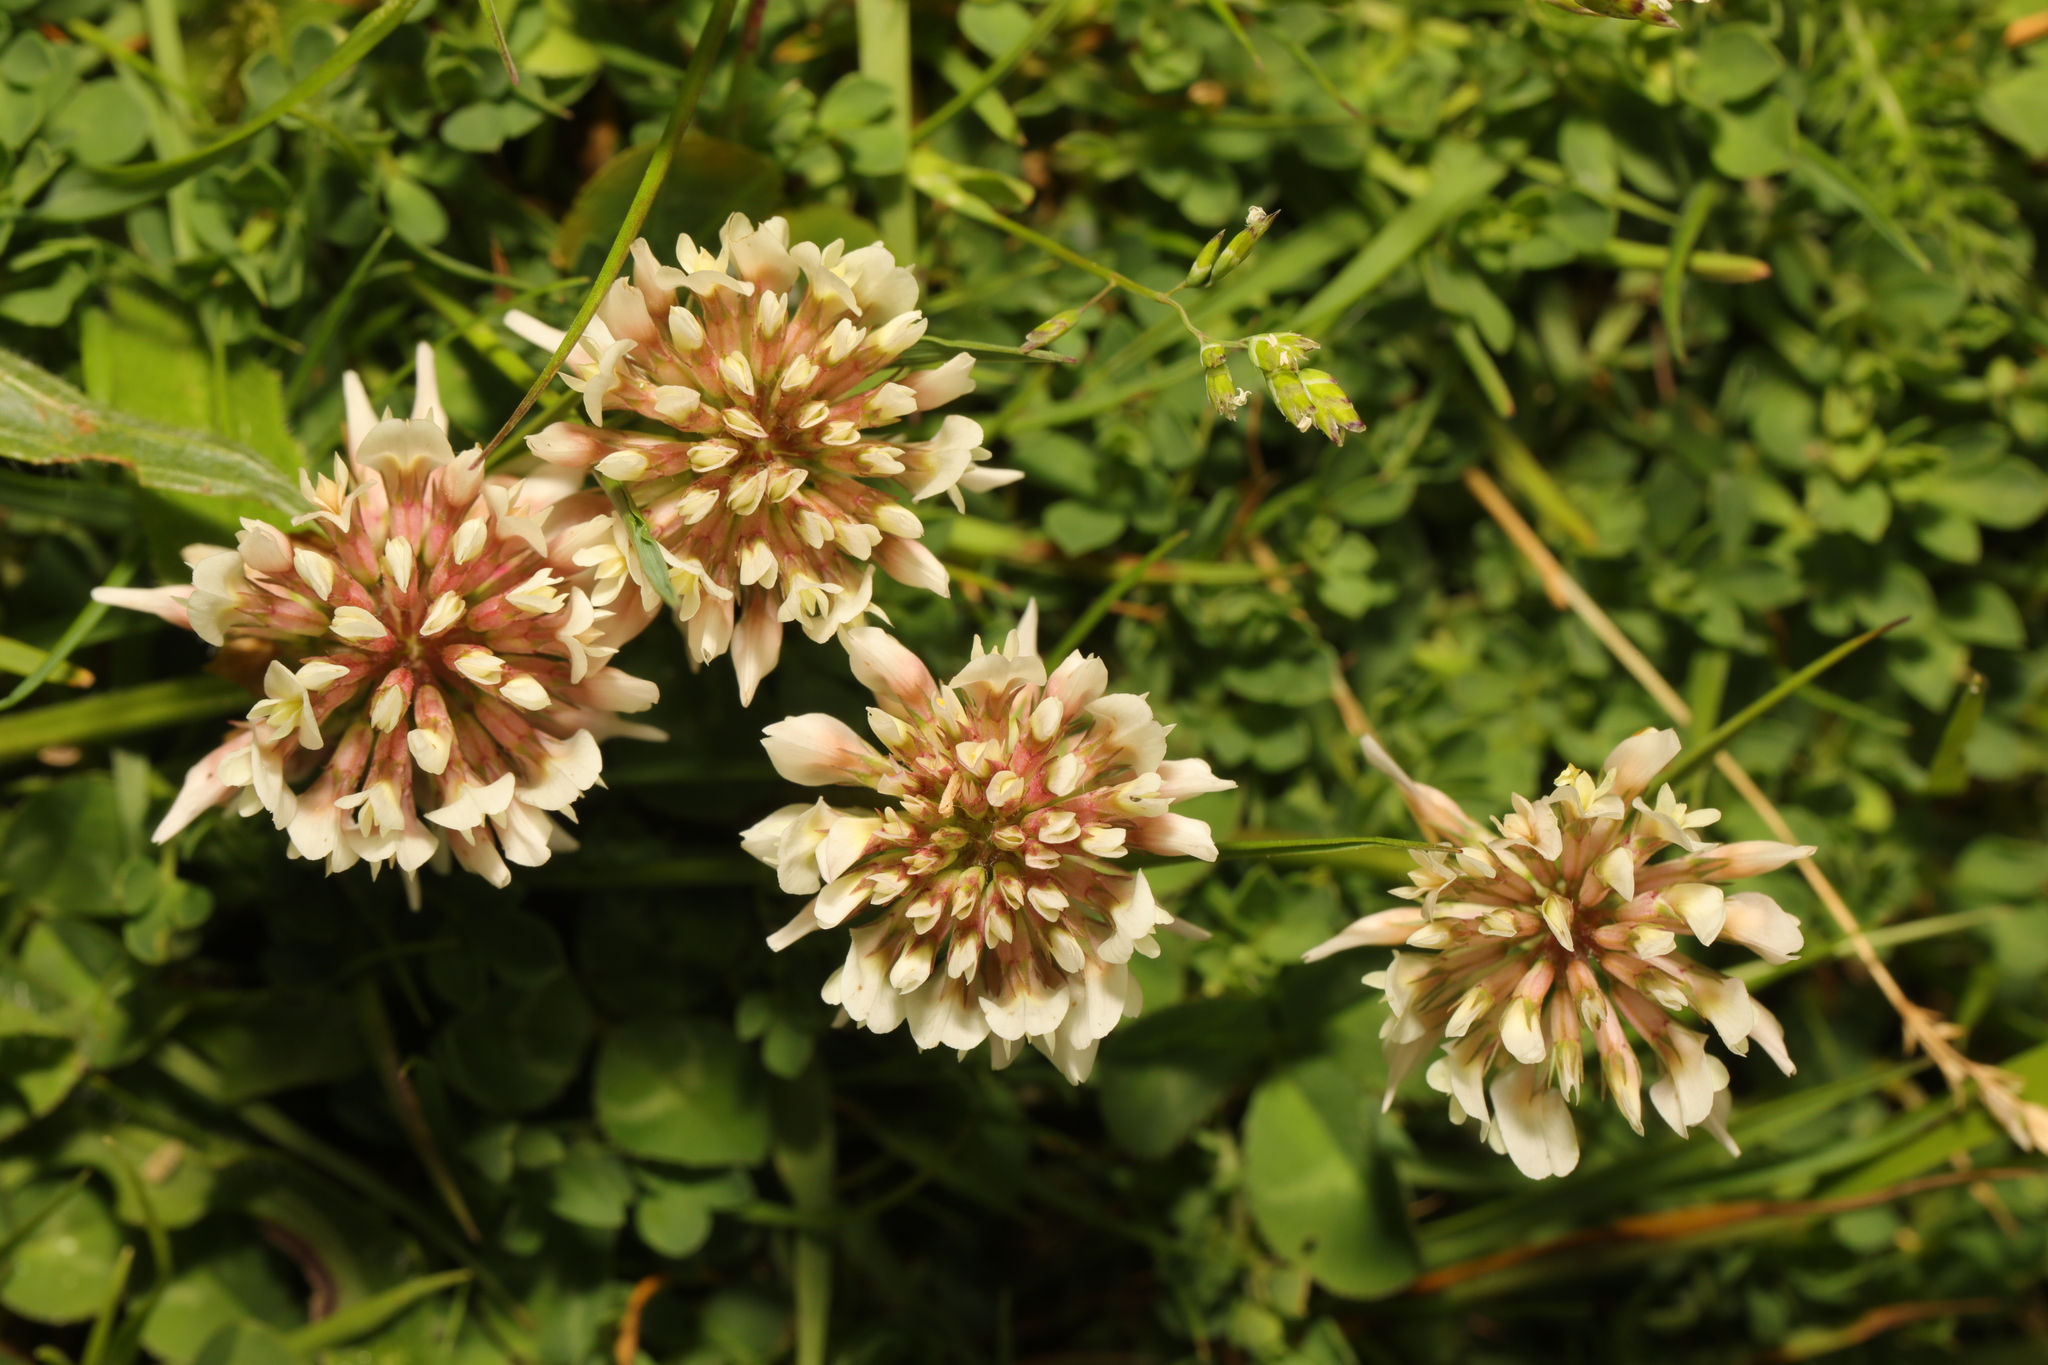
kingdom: Plantae
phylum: Tracheophyta
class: Magnoliopsida
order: Fabales
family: Fabaceae
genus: Trifolium
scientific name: Trifolium repens
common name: White clover
